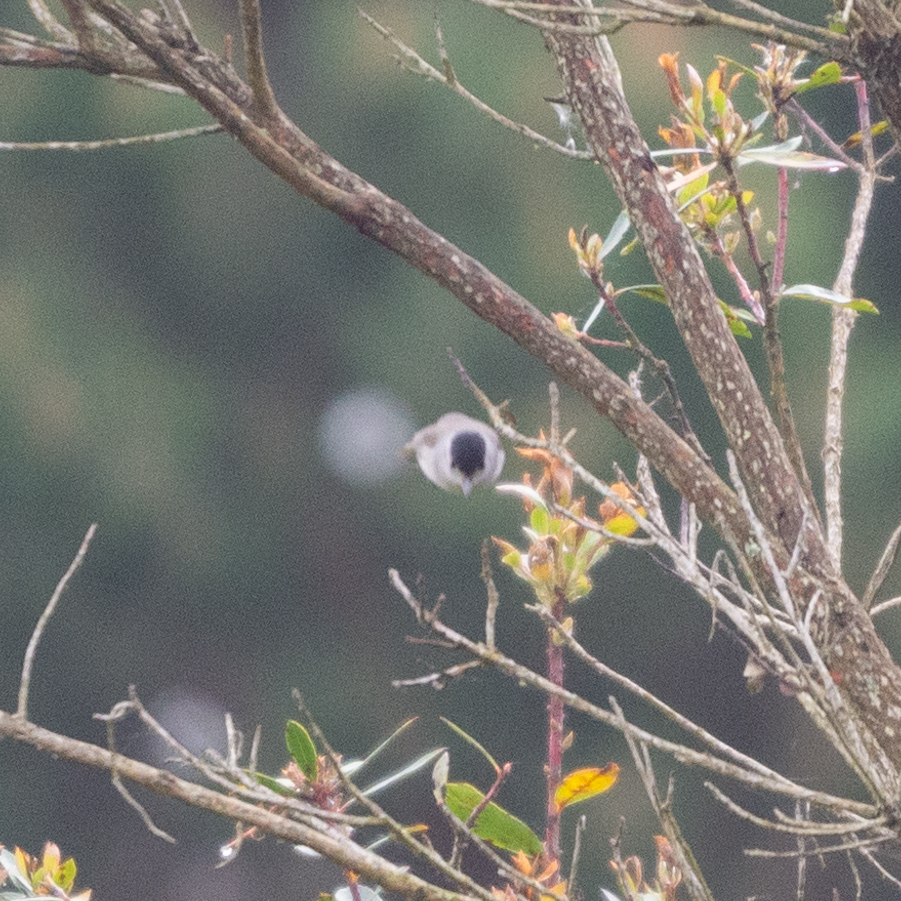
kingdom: Animalia
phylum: Chordata
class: Aves
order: Passeriformes
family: Sylviidae
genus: Sylvia
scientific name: Sylvia atricapilla
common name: Eurasian blackcap
